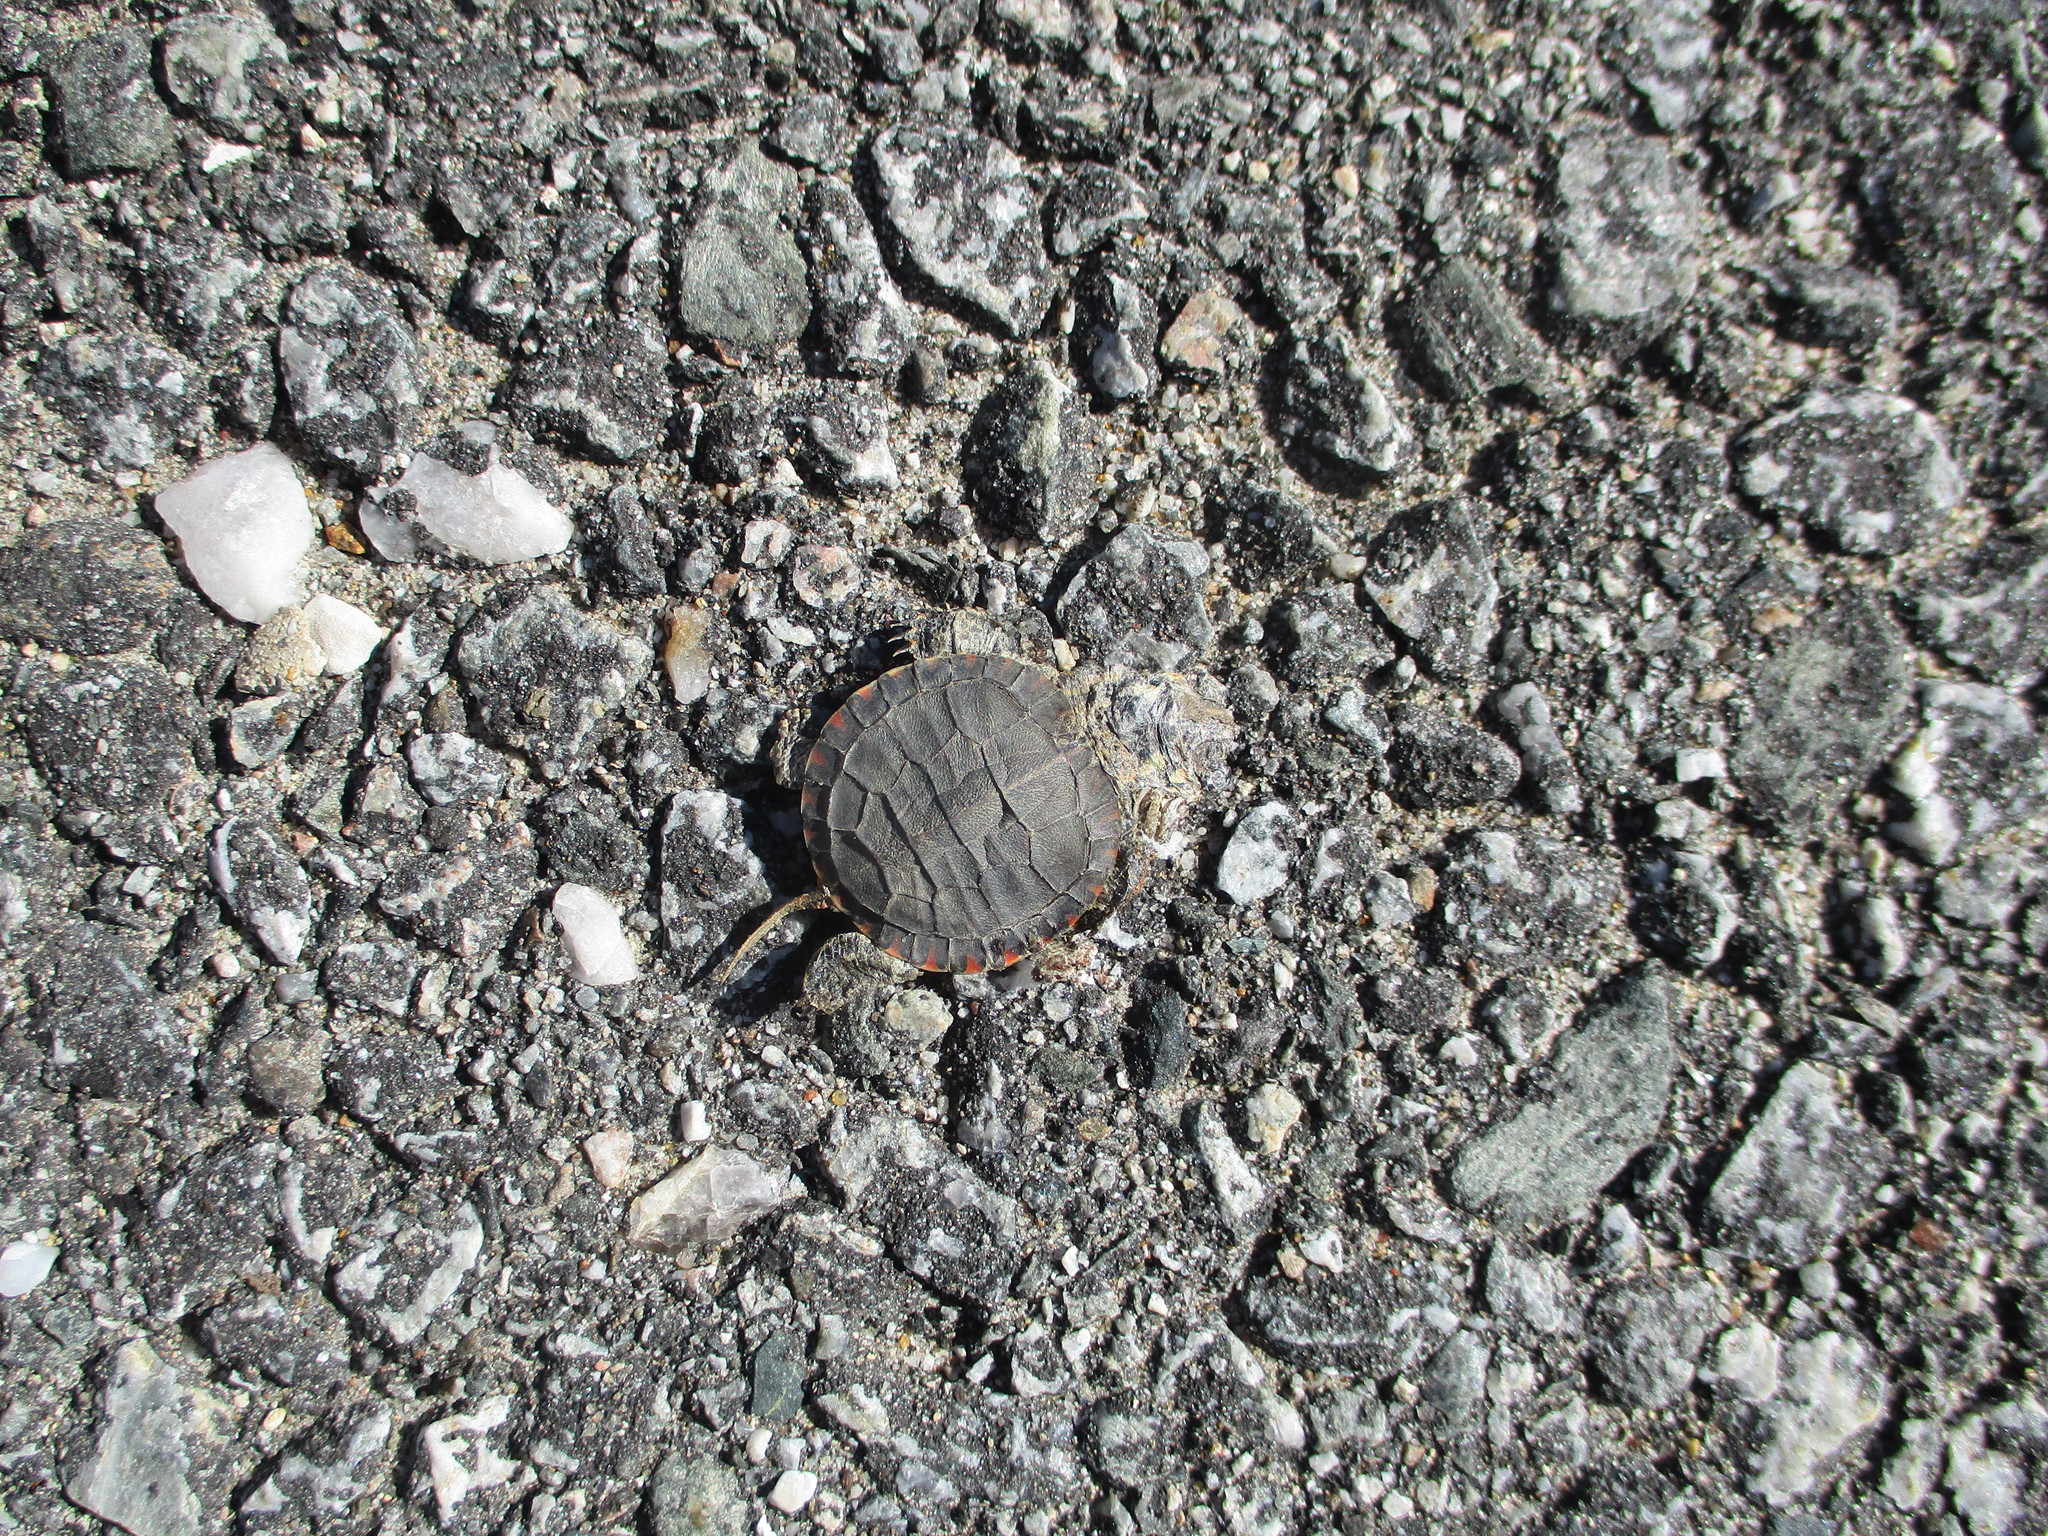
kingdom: Animalia
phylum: Chordata
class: Testudines
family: Emydidae
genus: Chrysemys
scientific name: Chrysemys picta
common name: Painted turtle
